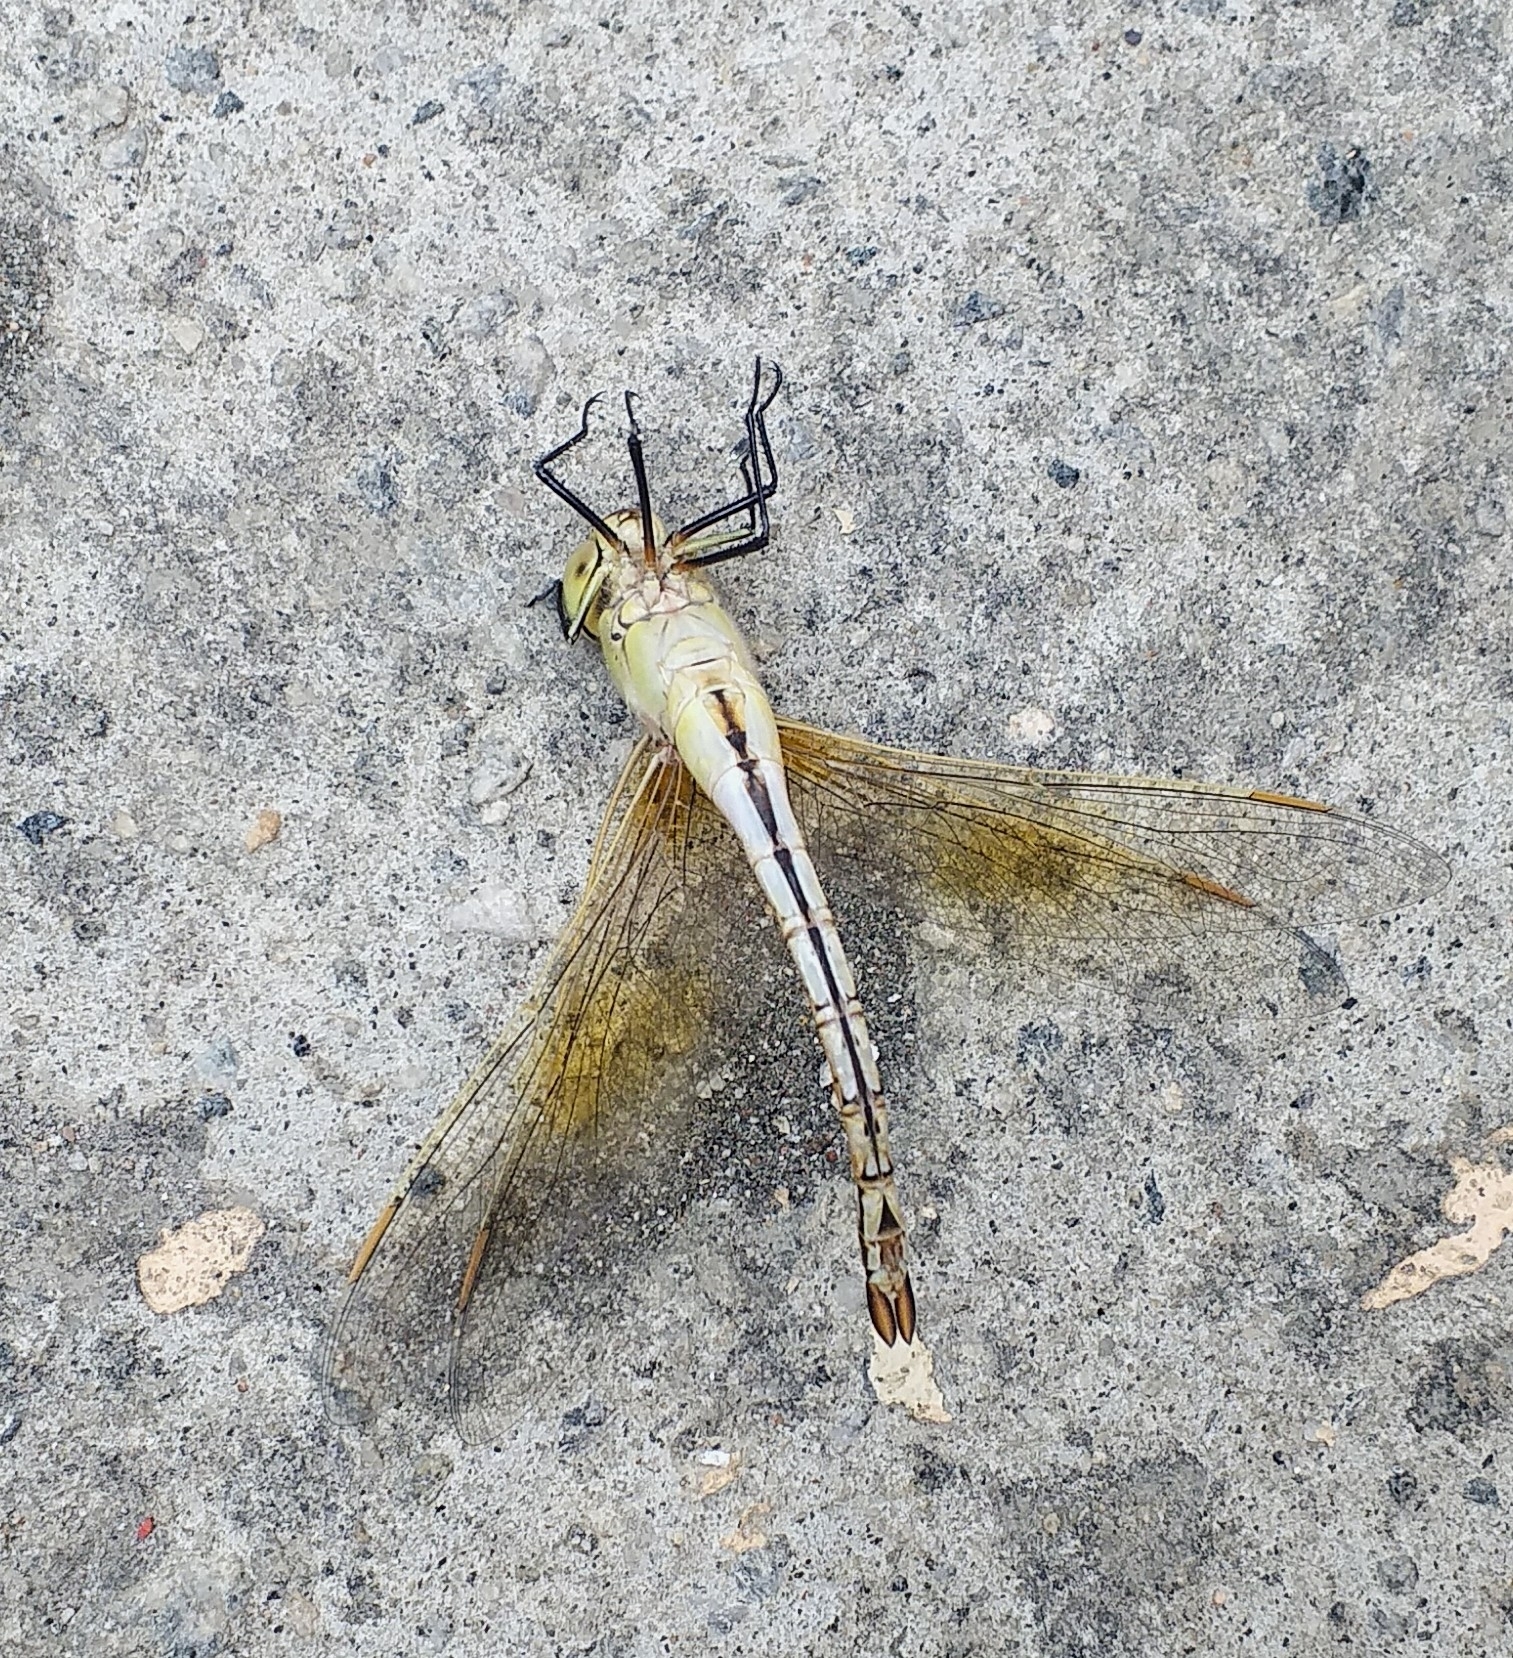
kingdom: Animalia
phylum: Arthropoda
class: Insecta
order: Odonata
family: Aeshnidae
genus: Anax
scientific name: Anax ephippiger
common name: Vagrant emperor
